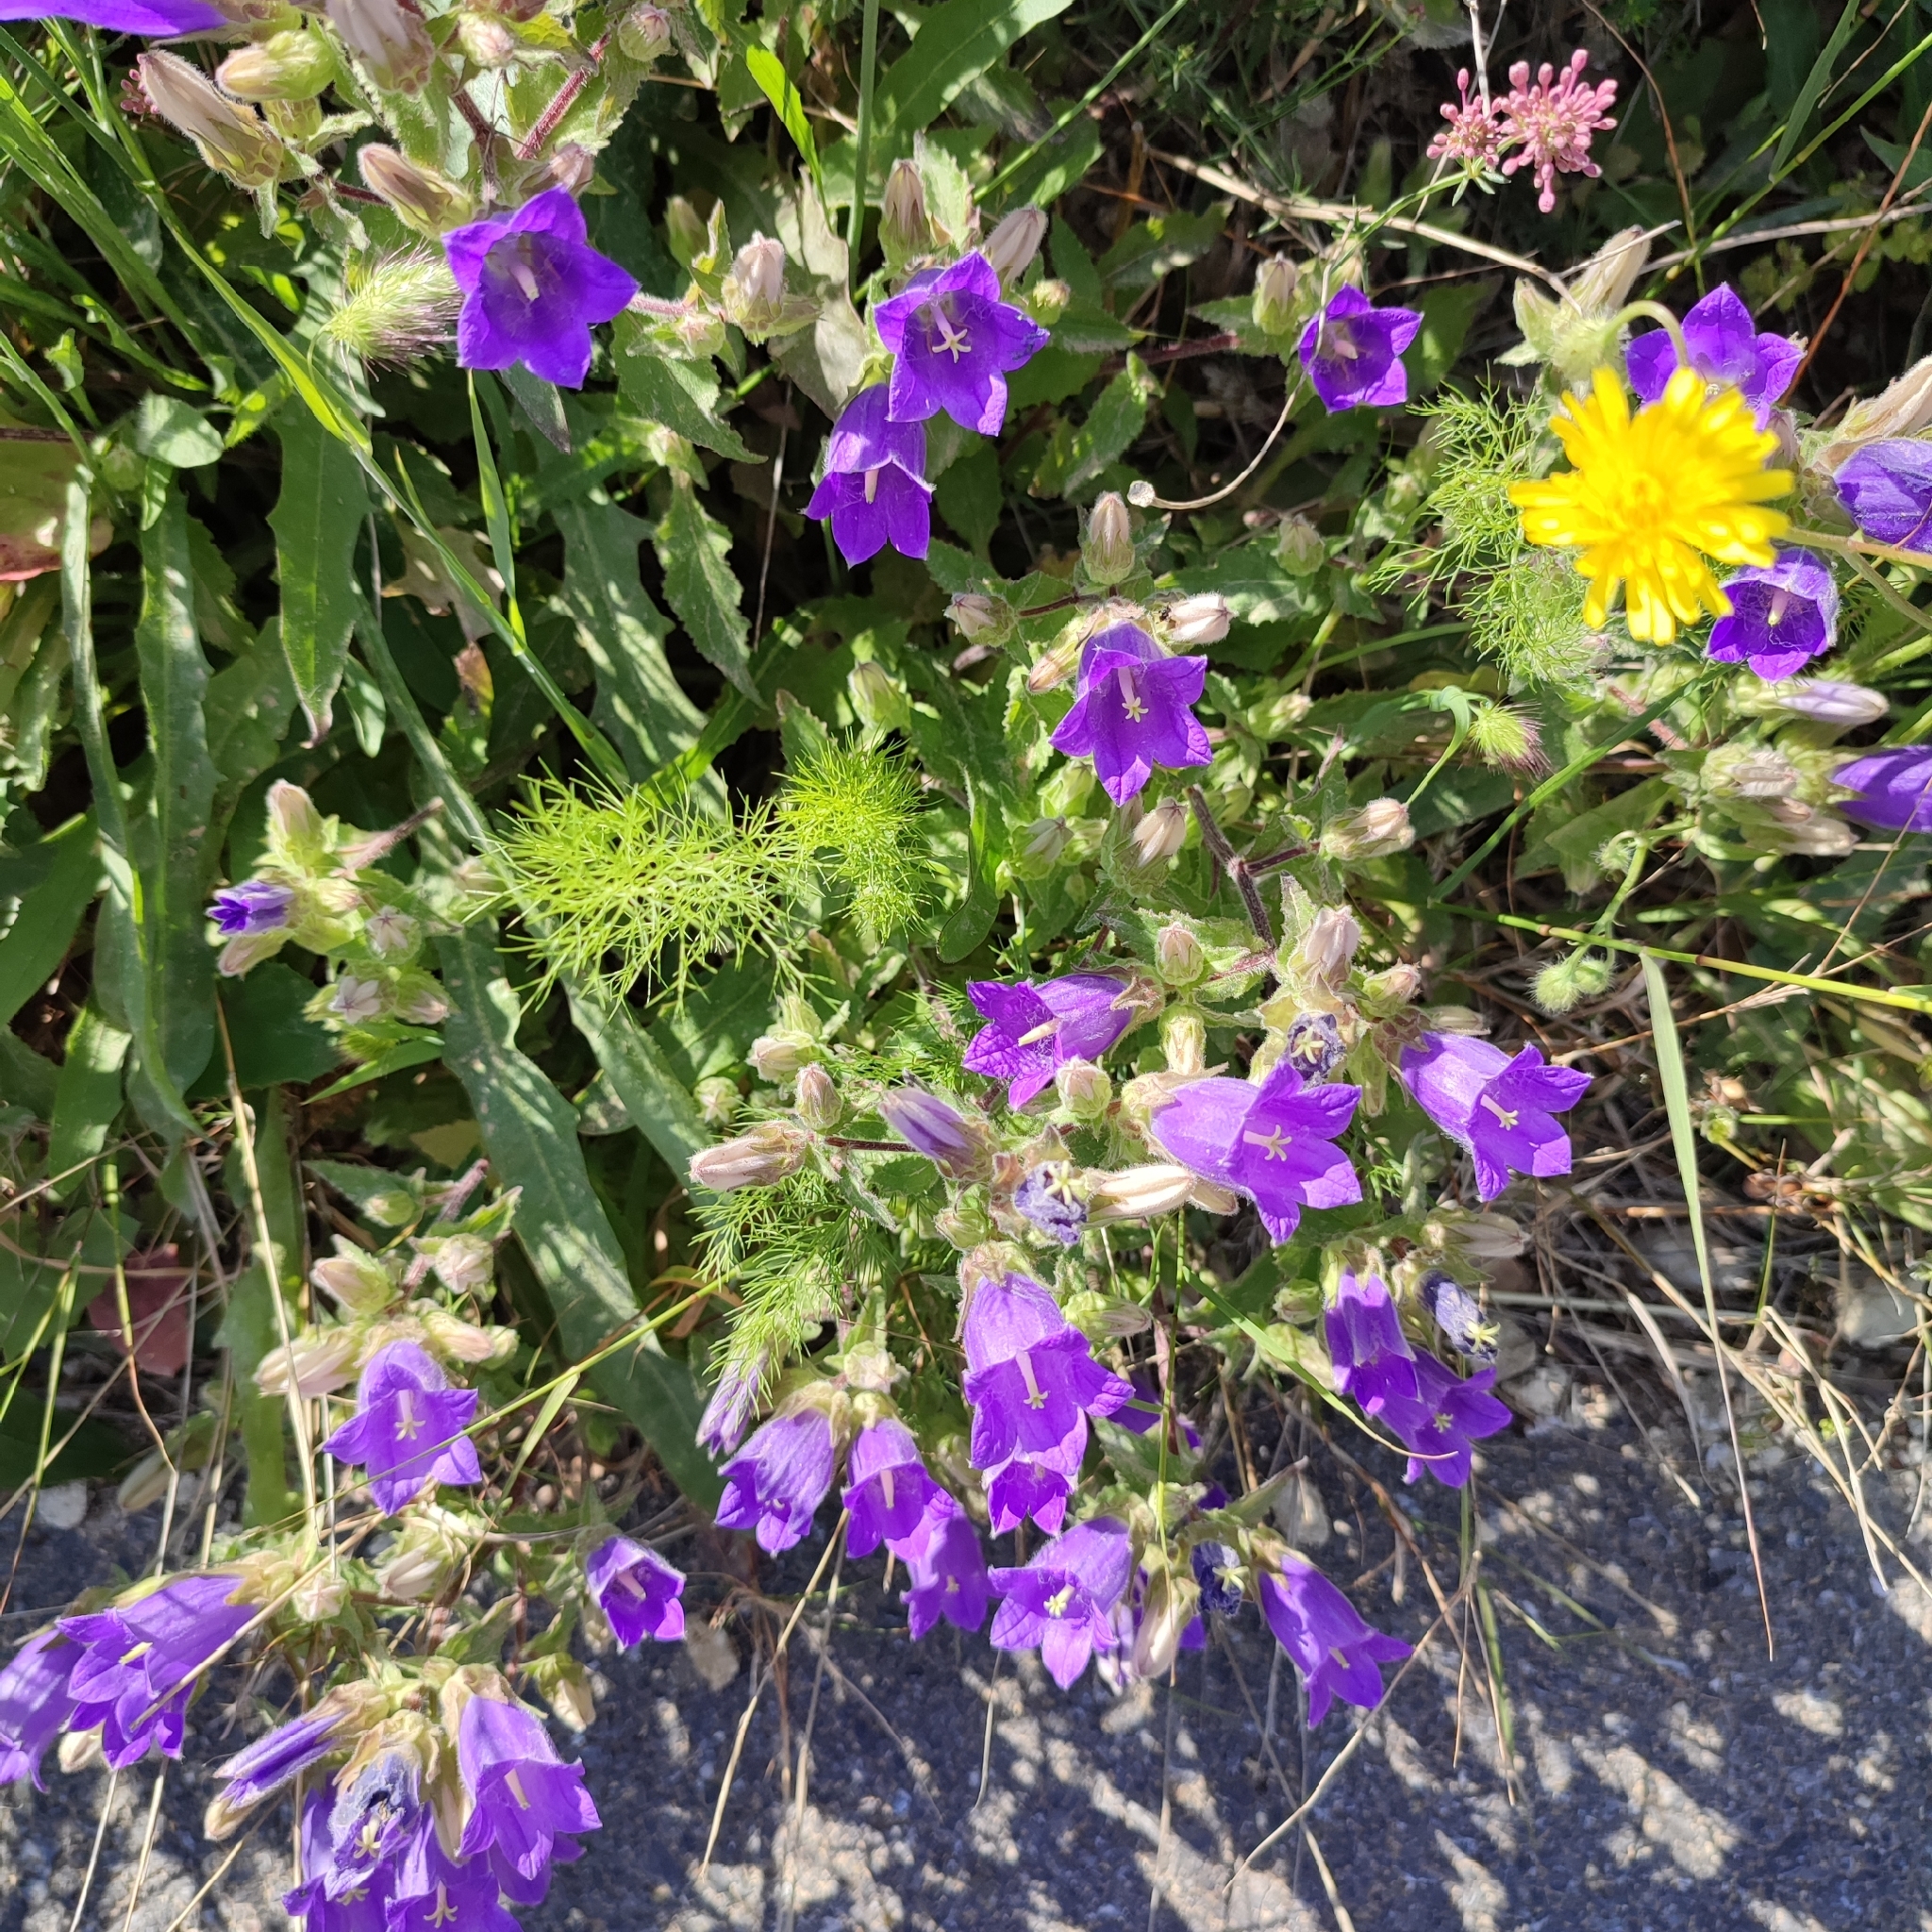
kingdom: Plantae
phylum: Tracheophyta
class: Magnoliopsida
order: Asterales
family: Campanulaceae
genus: Campanula
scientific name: Campanula tubulosa
